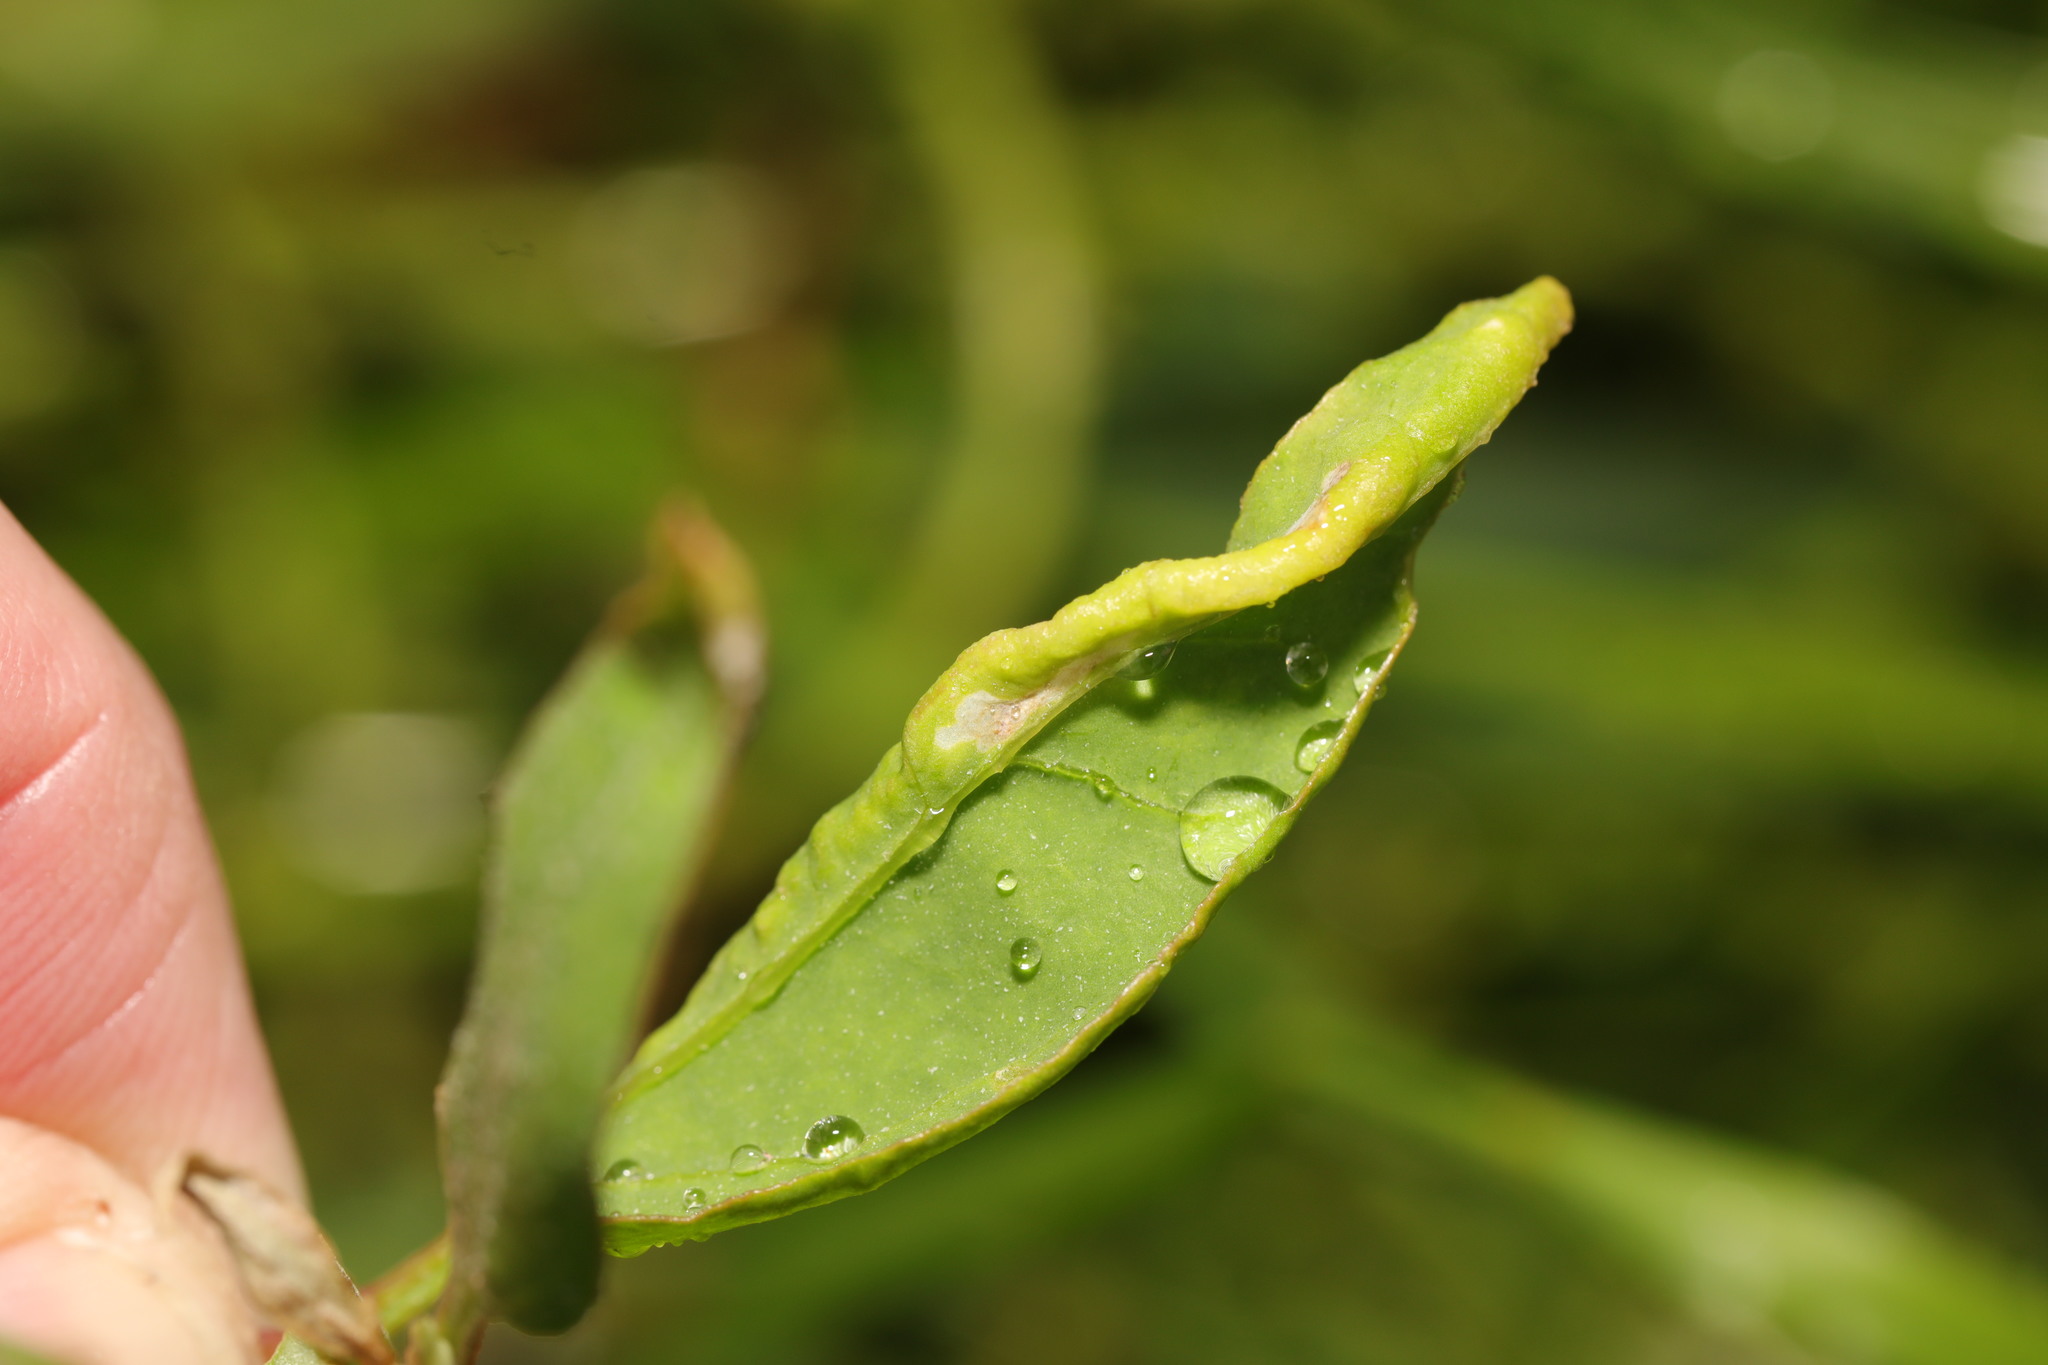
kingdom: Animalia
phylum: Arthropoda
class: Insecta
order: Hemiptera
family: Aphididae
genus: Hayhurstia
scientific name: Hayhurstia atriplicis
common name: Chenopodium aphid
